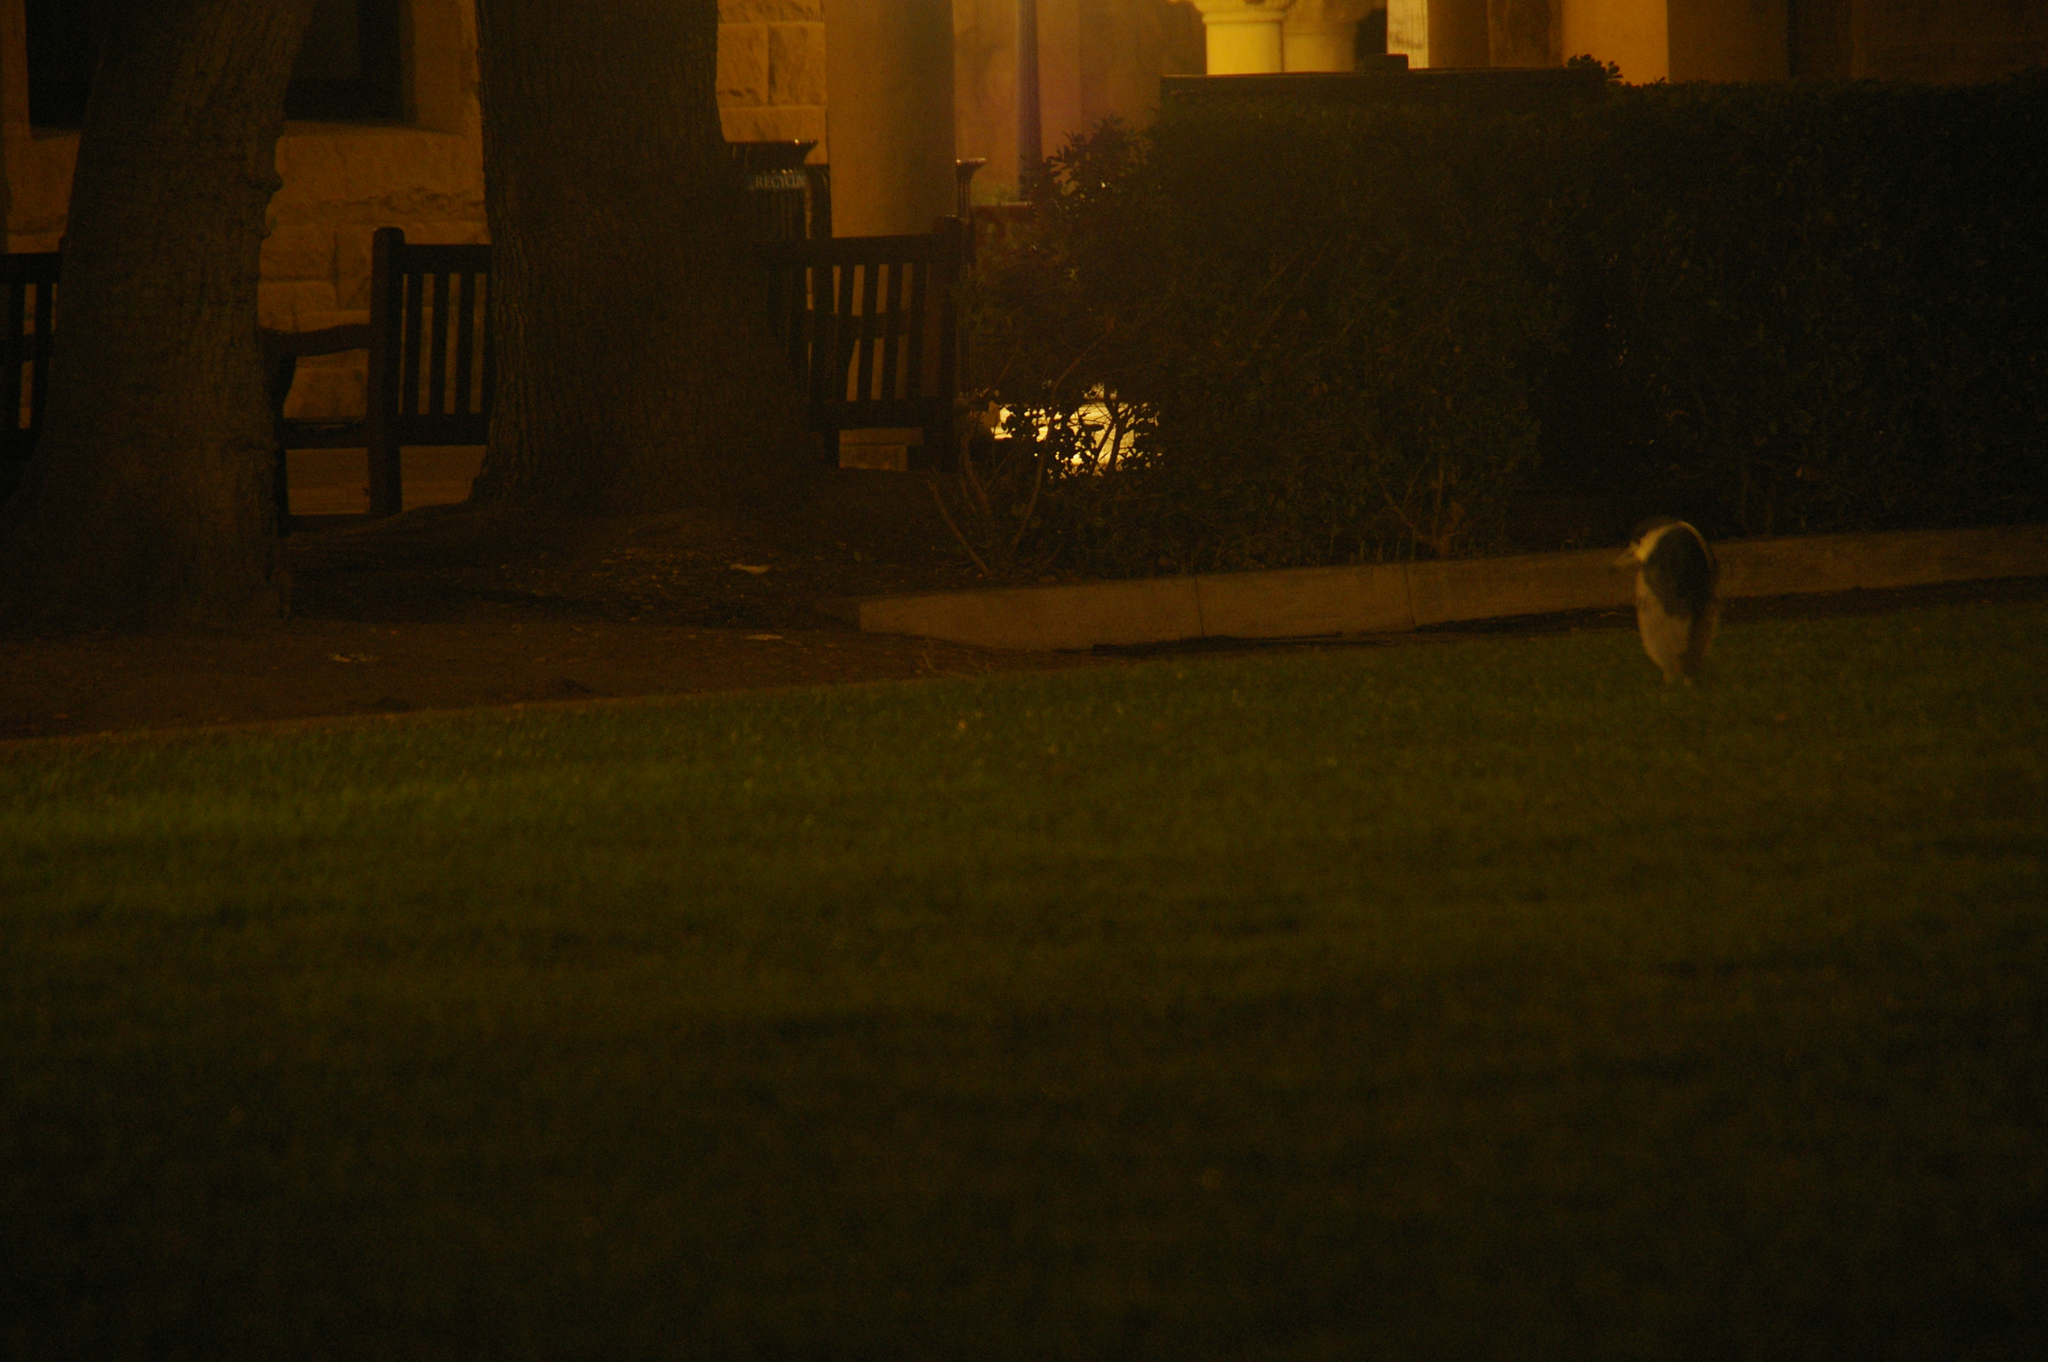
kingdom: Animalia
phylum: Chordata
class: Aves
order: Pelecaniformes
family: Ardeidae
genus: Nycticorax
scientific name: Nycticorax nycticorax
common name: Black-crowned night heron
